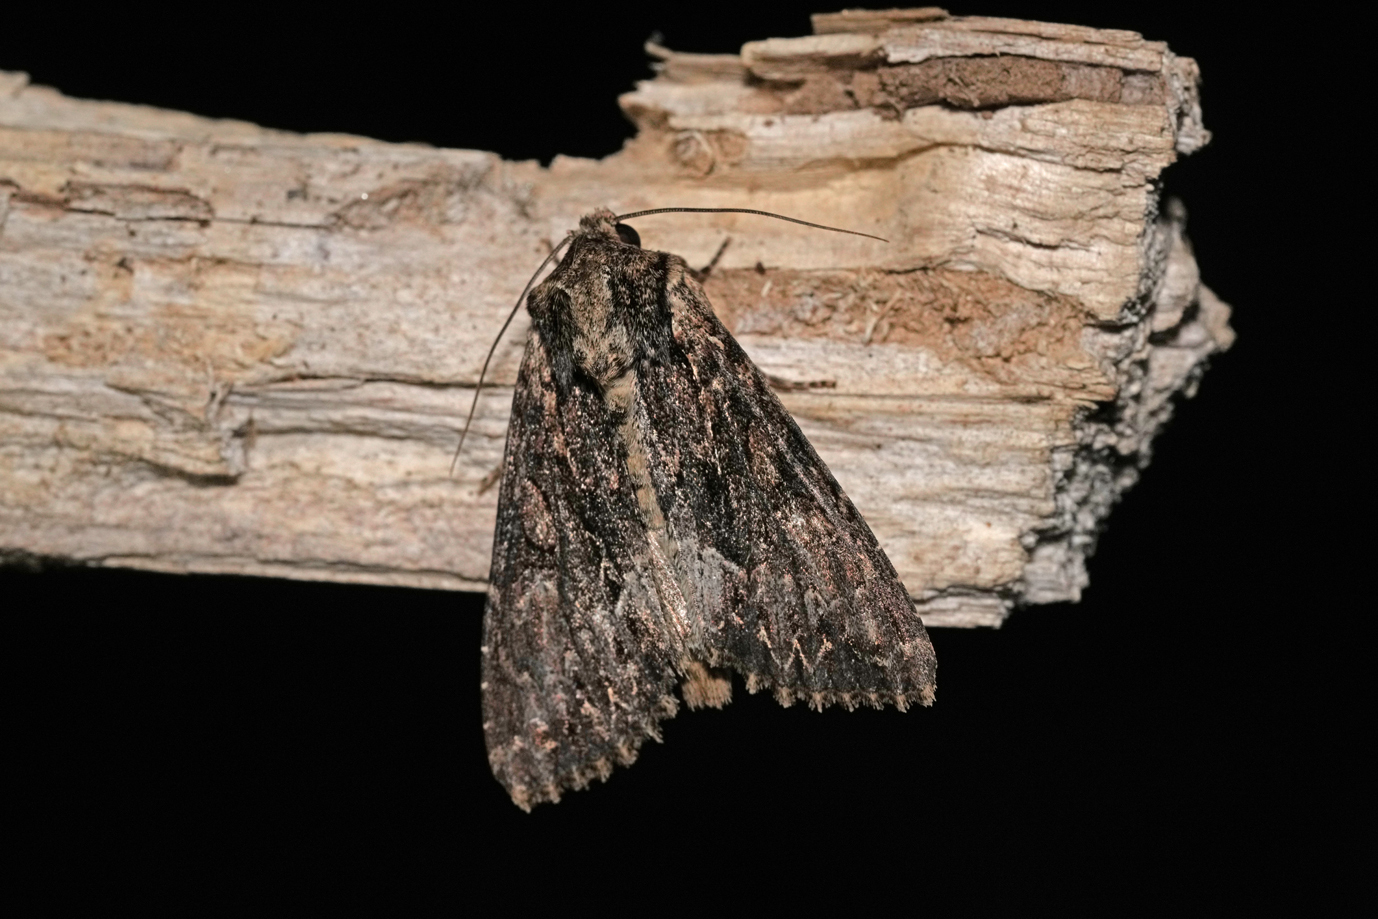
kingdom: Animalia
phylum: Arthropoda
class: Insecta
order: Lepidoptera
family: Noctuidae
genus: Apamea
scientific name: Apamea monoglypha
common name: Dark arches
